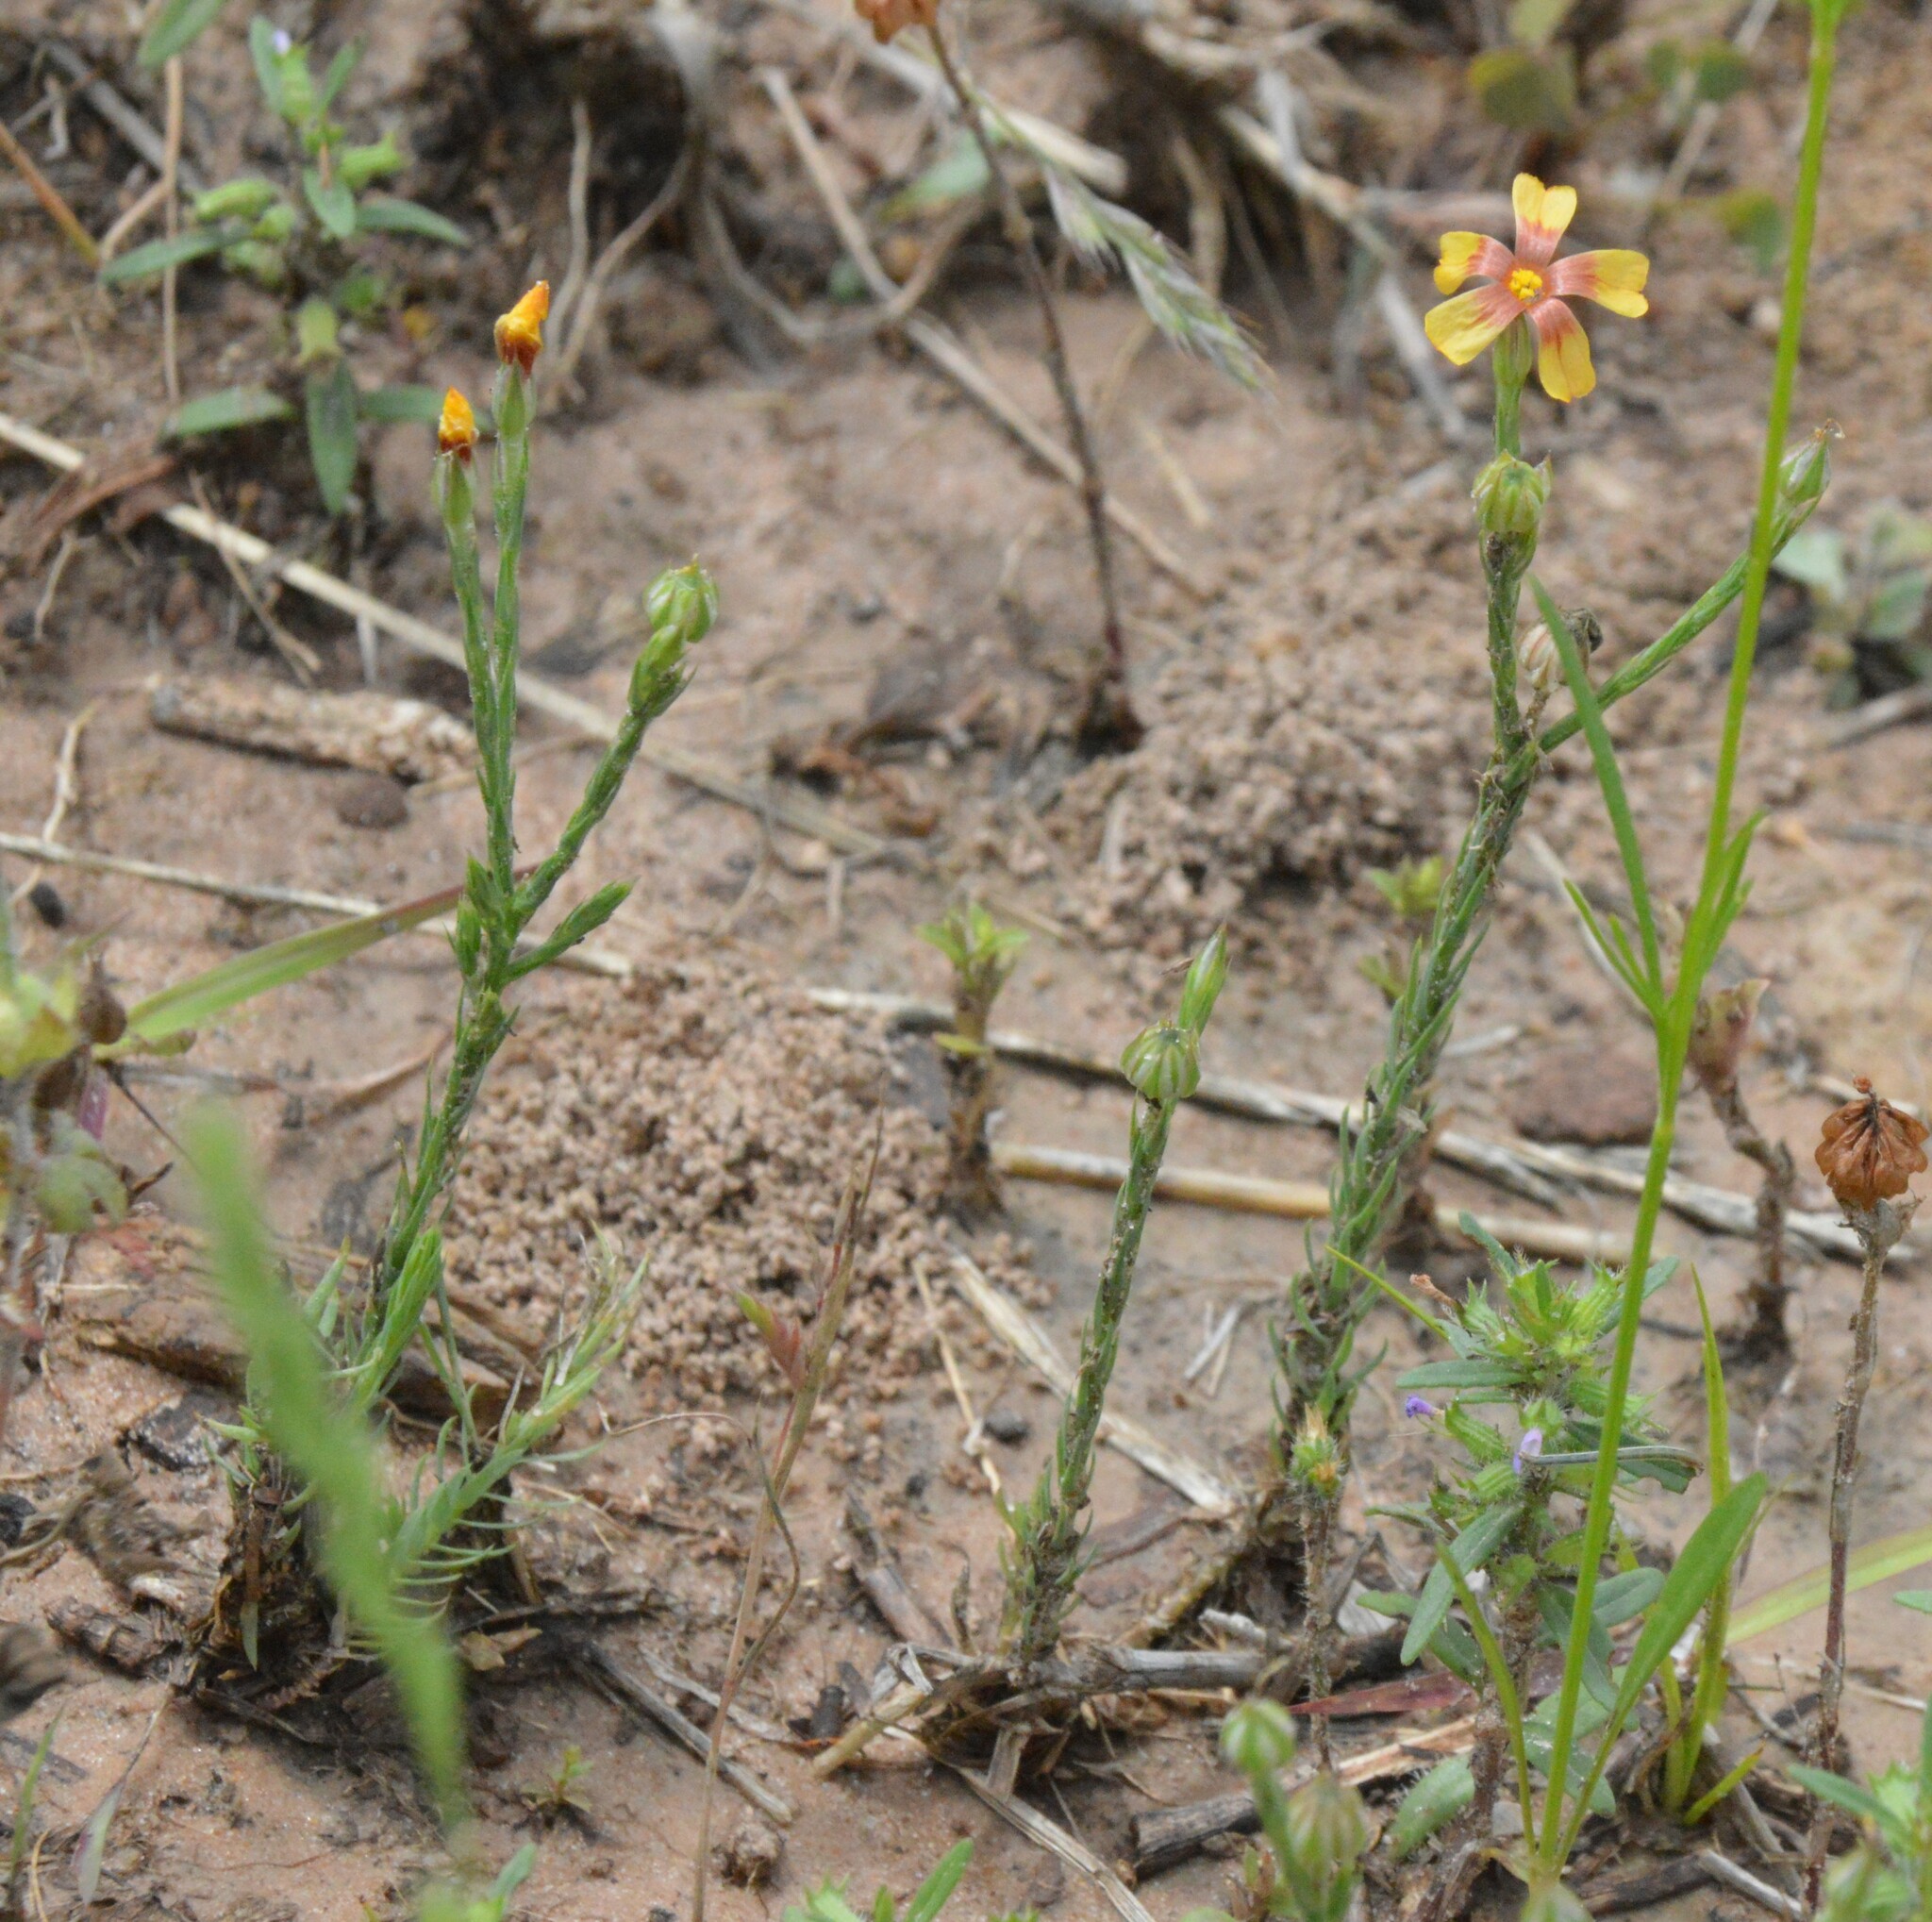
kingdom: Plantae
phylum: Tracheophyta
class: Magnoliopsida
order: Malpighiales
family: Linaceae
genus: Linum
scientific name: Linum imbricatum
